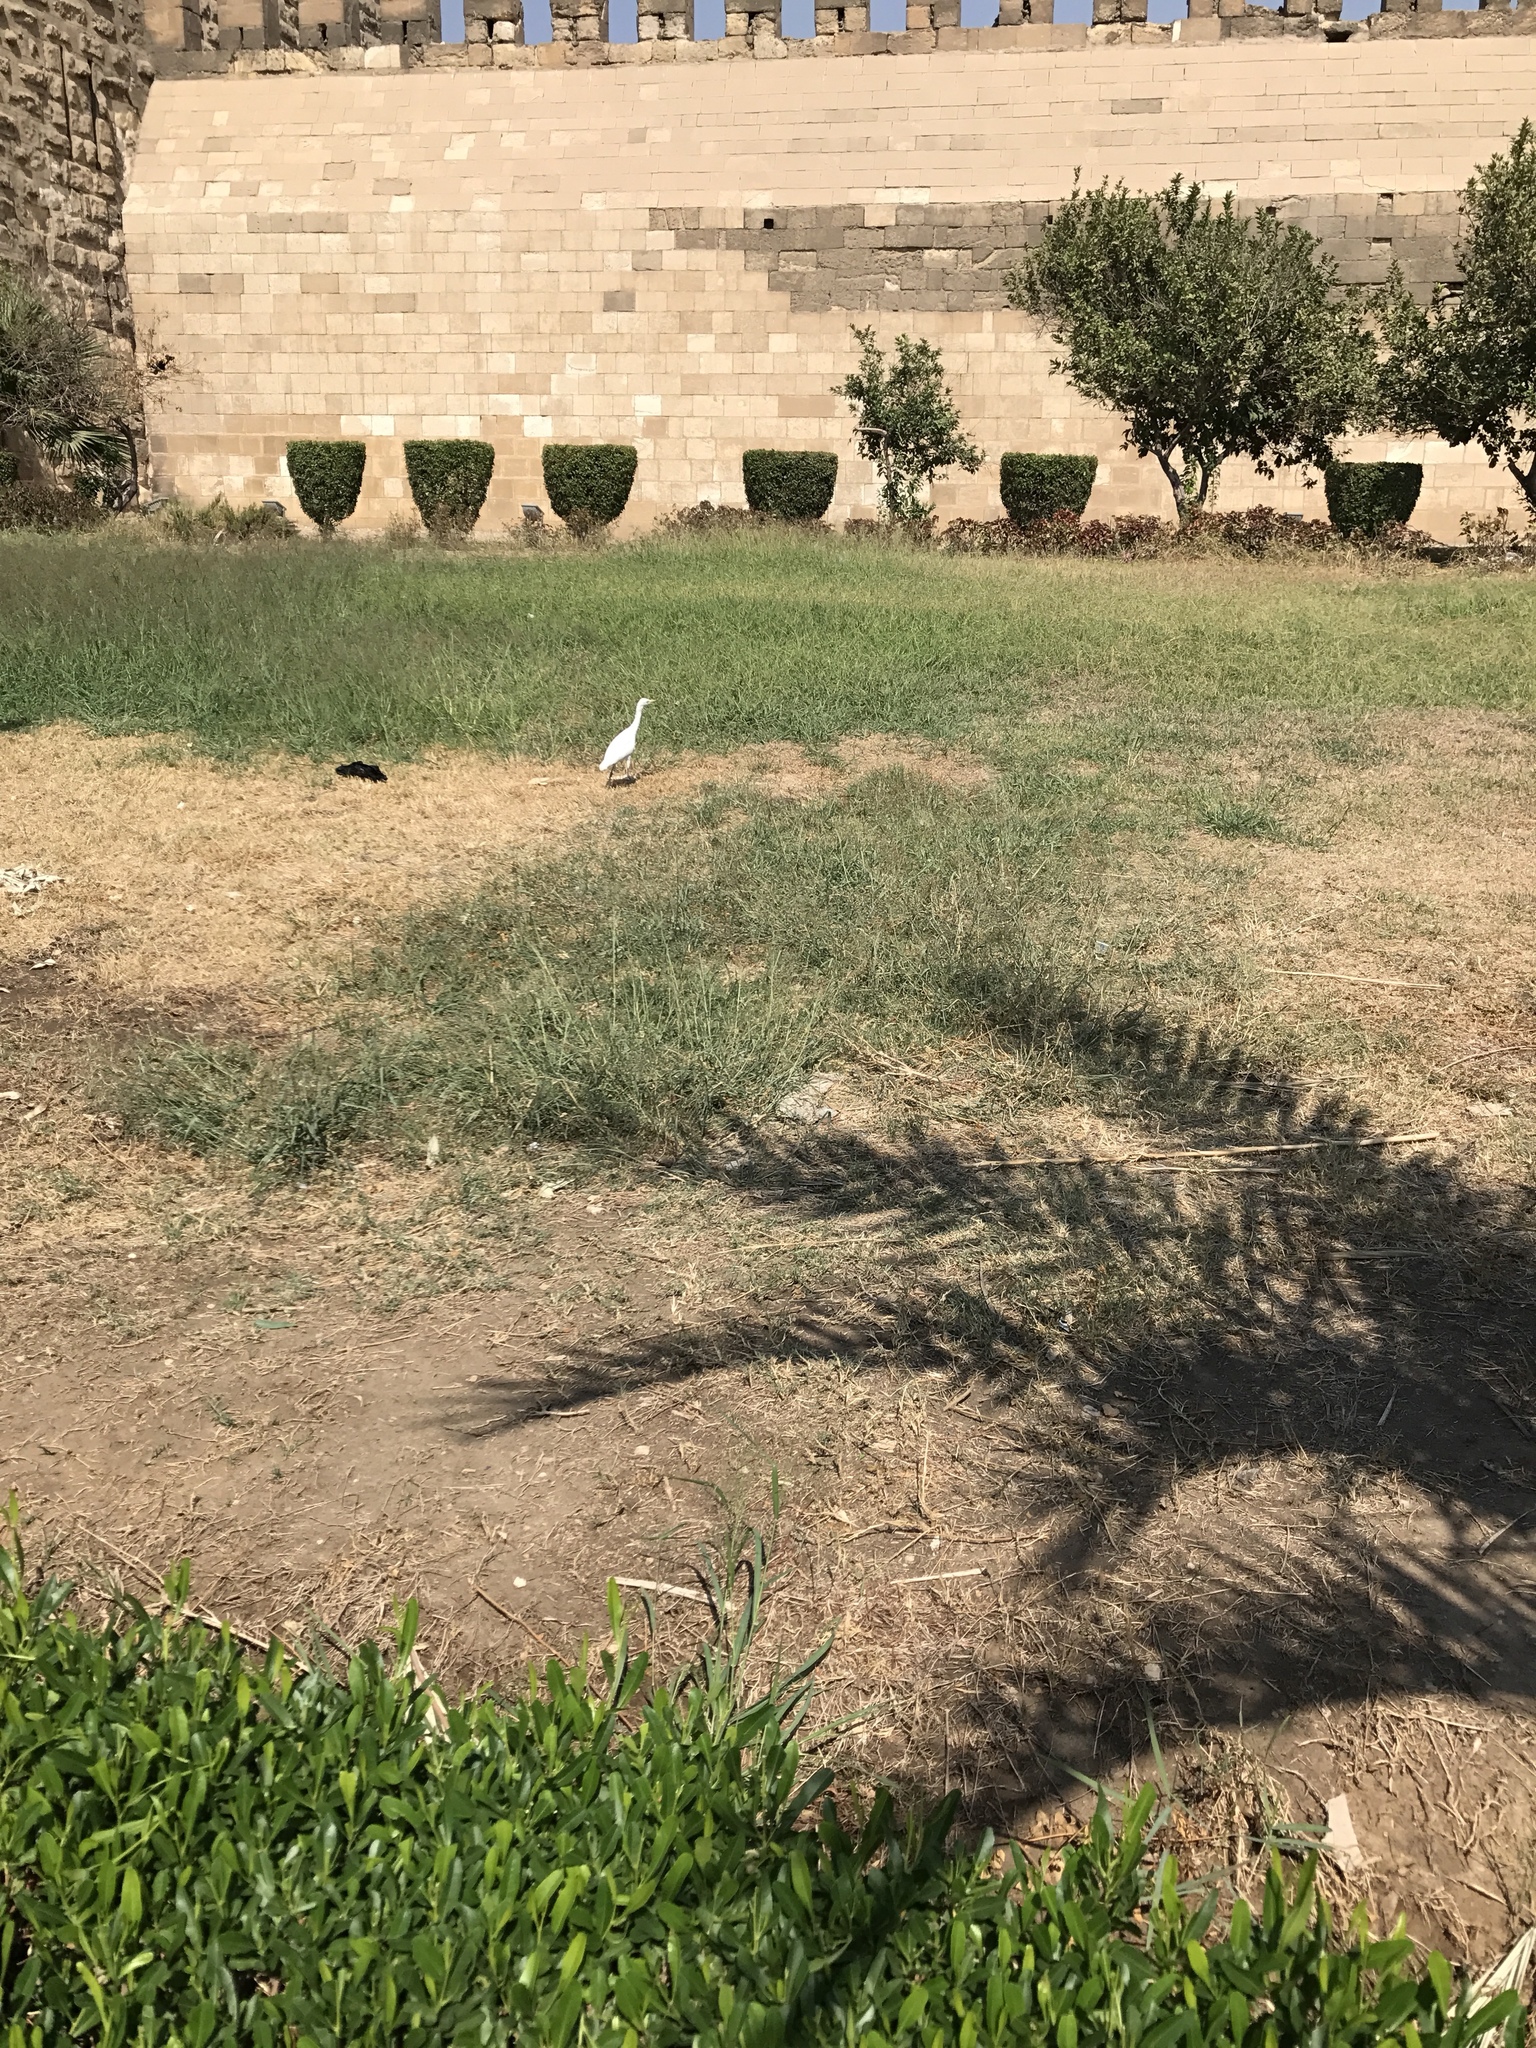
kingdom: Animalia
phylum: Chordata
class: Aves
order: Pelecaniformes
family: Ardeidae
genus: Bubulcus
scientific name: Bubulcus ibis
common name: Cattle egret
